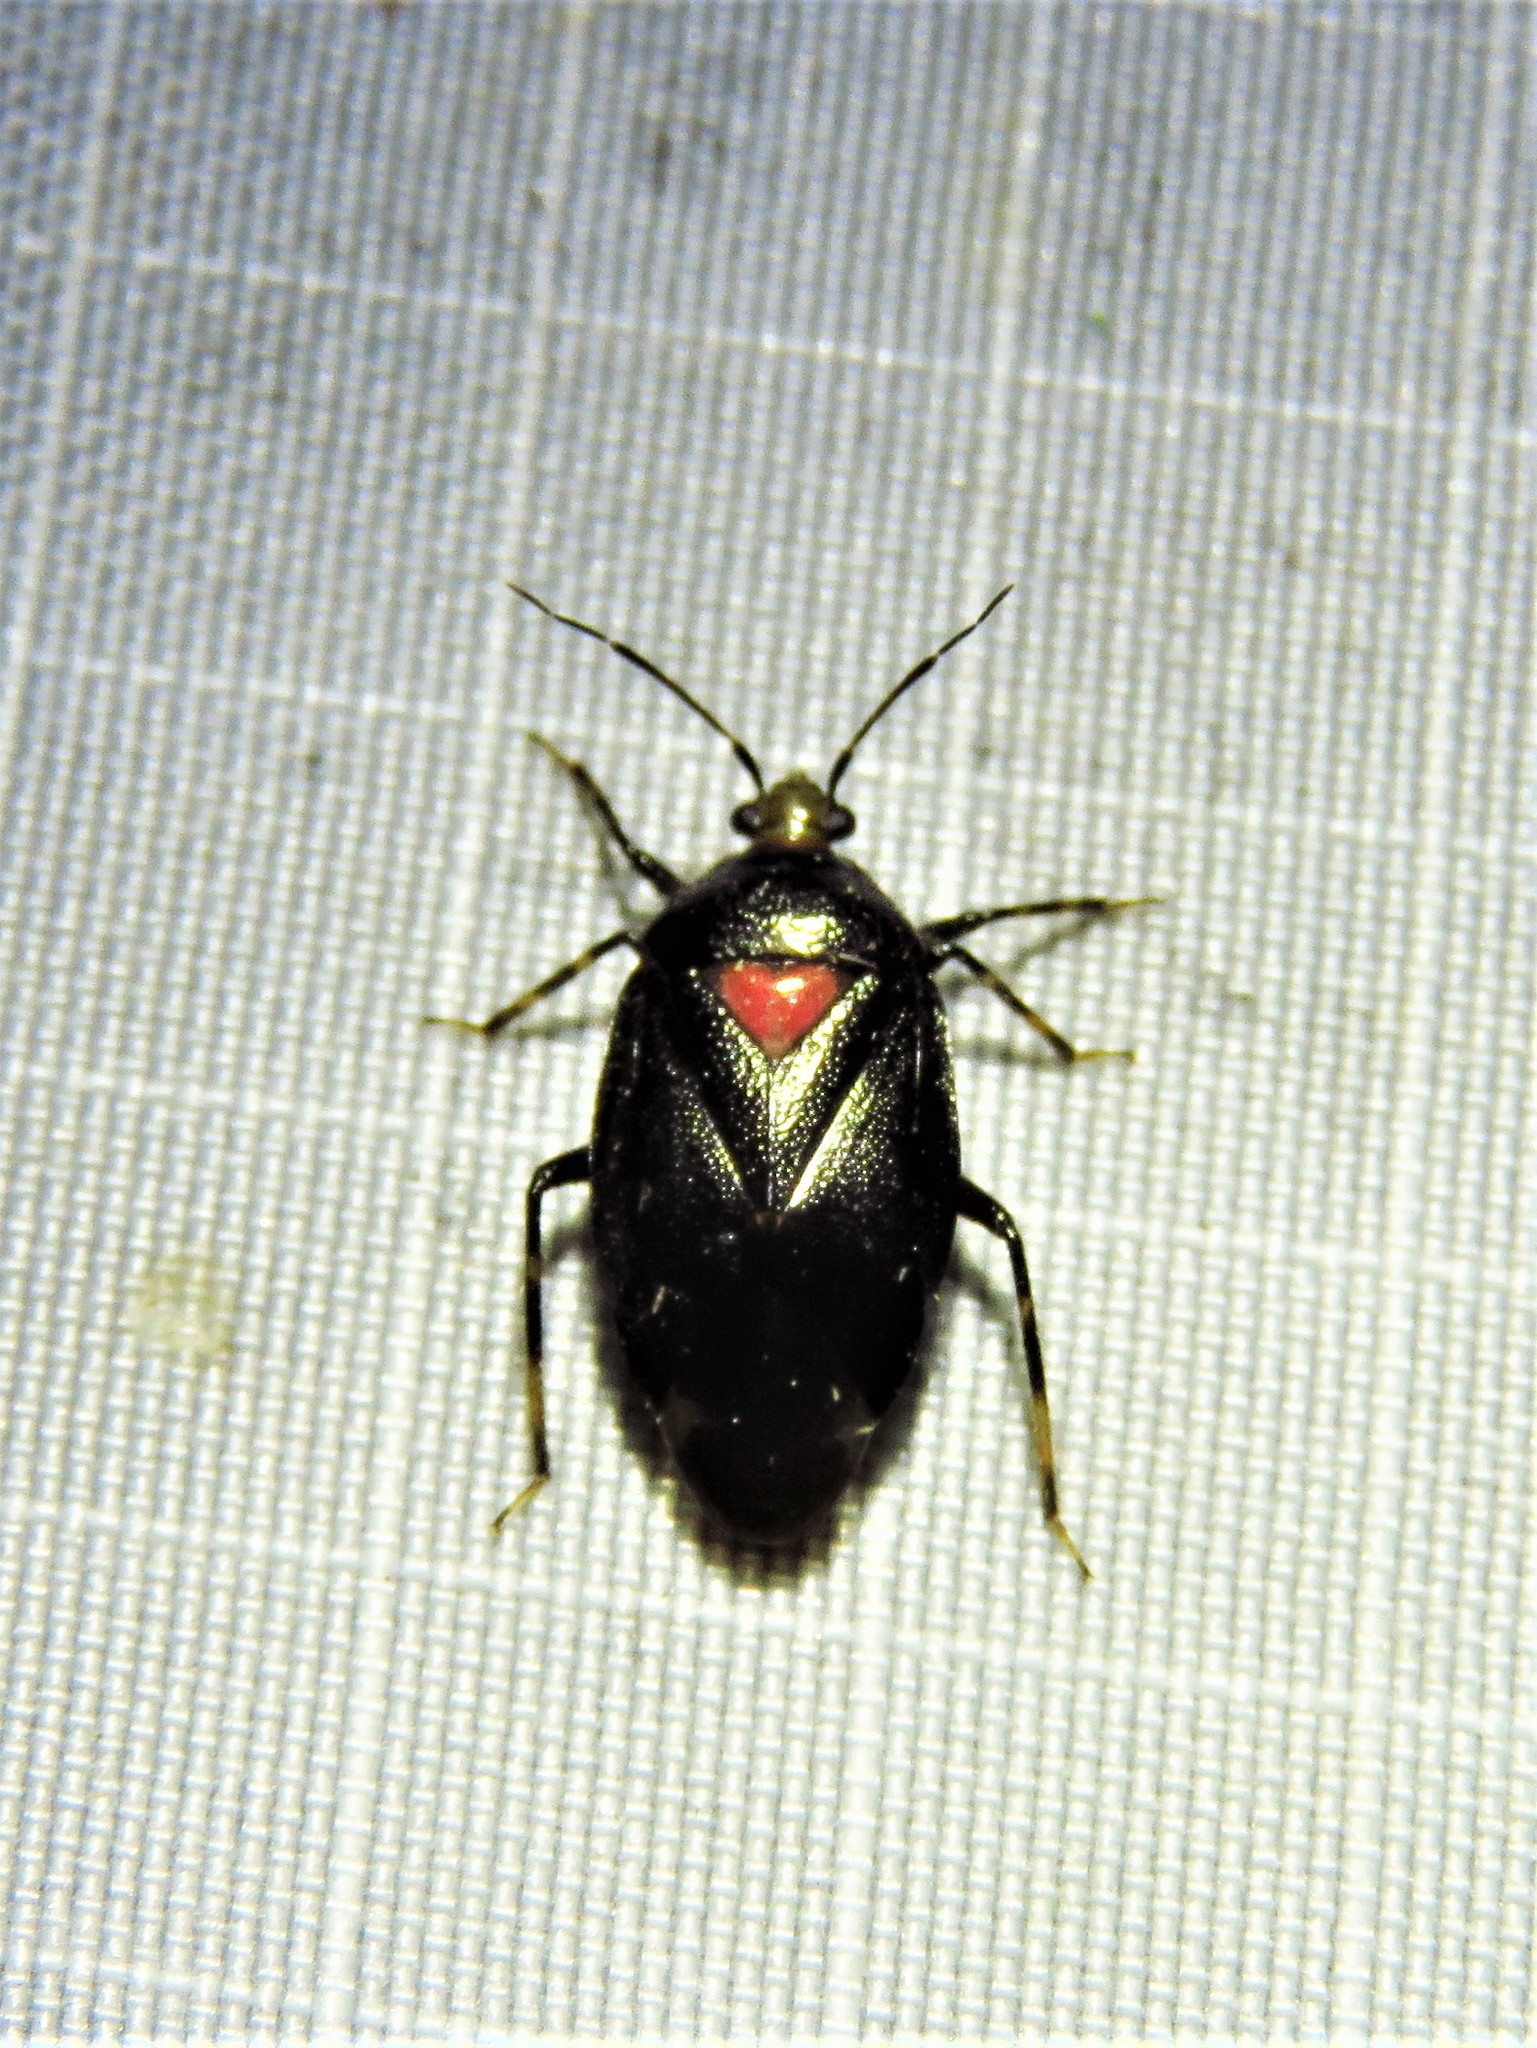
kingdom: Animalia
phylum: Arthropoda
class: Insecta
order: Hemiptera
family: Miridae
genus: Deraeocoris
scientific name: Deraeocoris sayi
